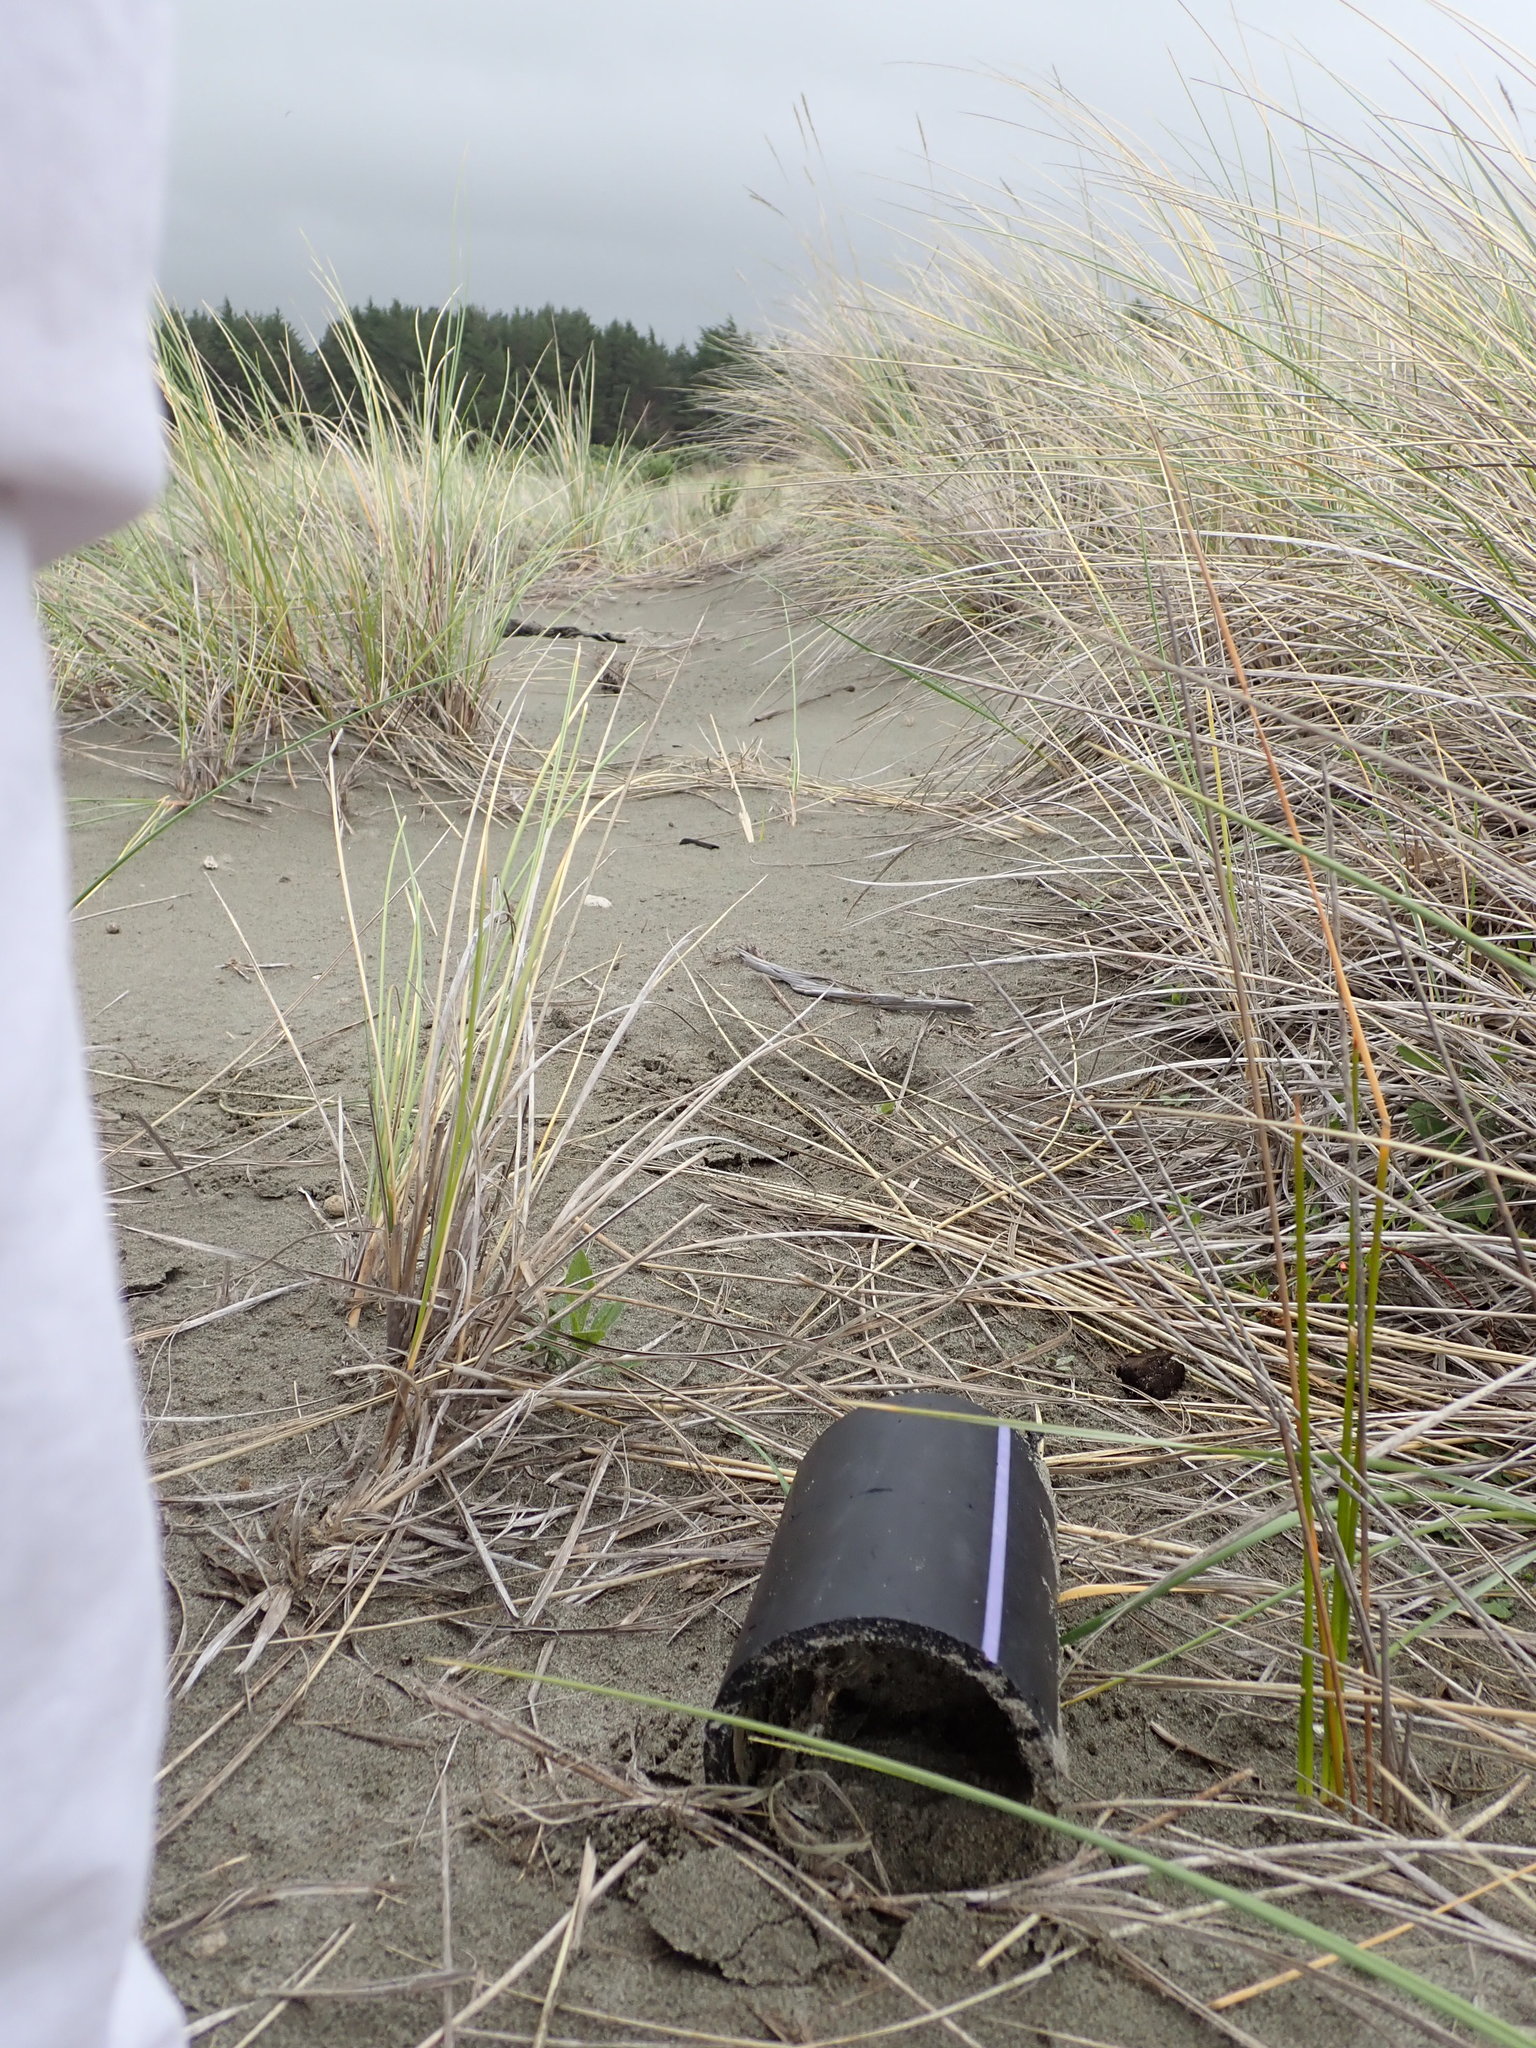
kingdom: Animalia
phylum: Arthropoda
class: Arachnida
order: Araneae
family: Theridiidae
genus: Latrodectus
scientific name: Latrodectus katipo
